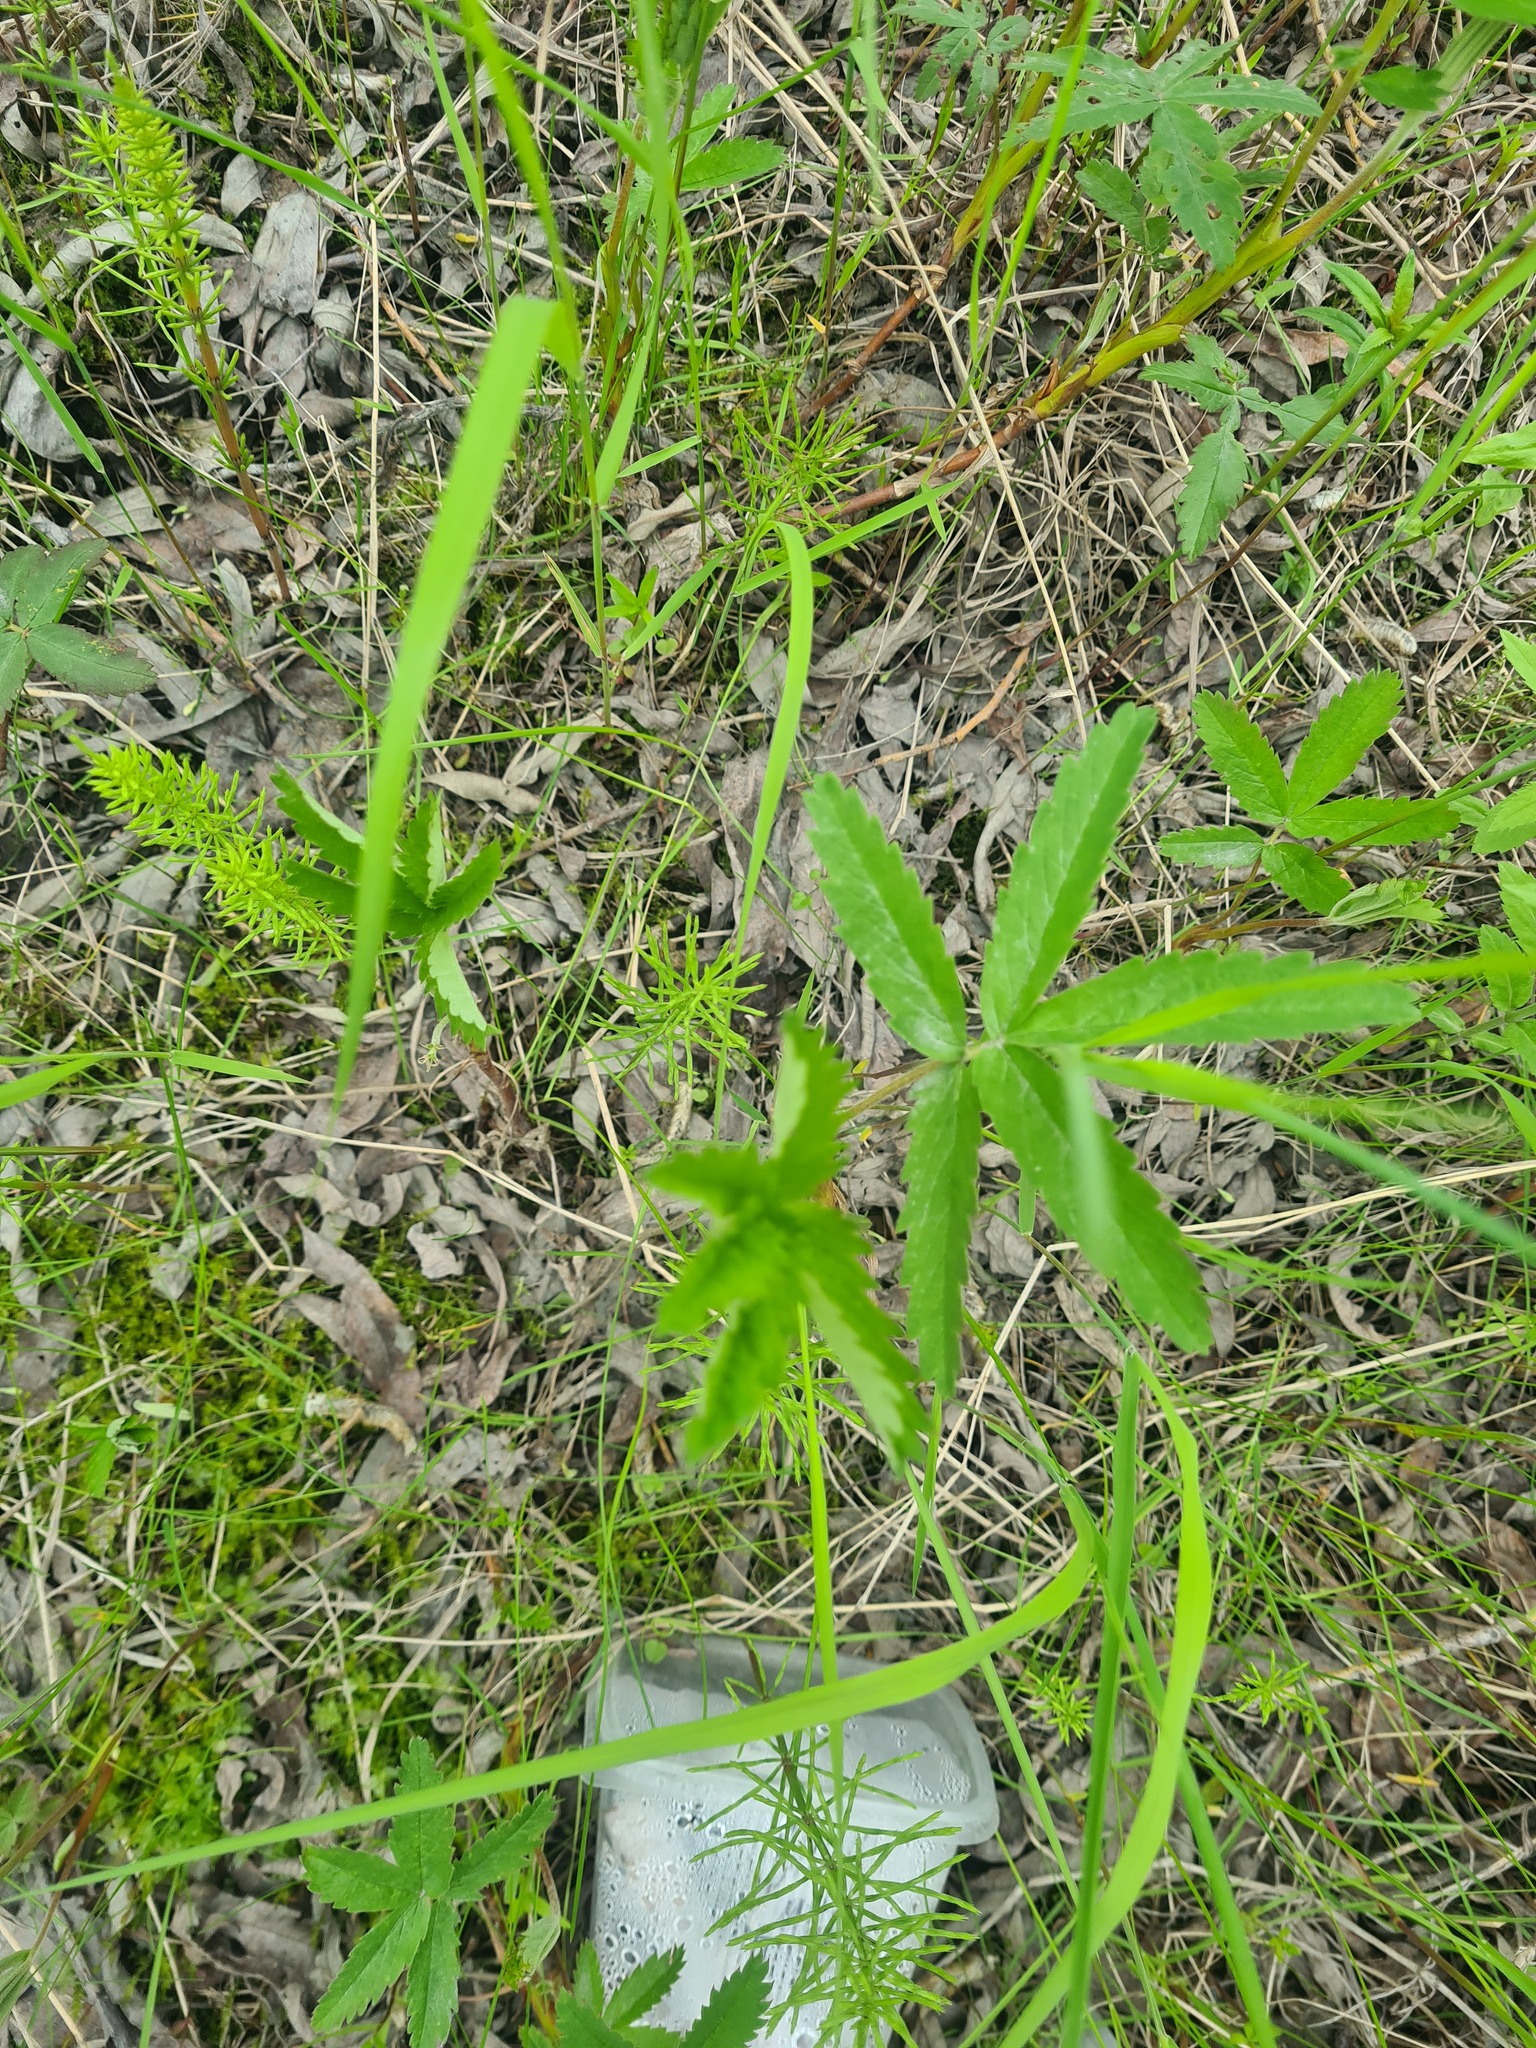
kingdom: Plantae
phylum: Tracheophyta
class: Magnoliopsida
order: Rosales
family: Rosaceae
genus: Comarum
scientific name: Comarum palustre
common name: Marsh cinquefoil
